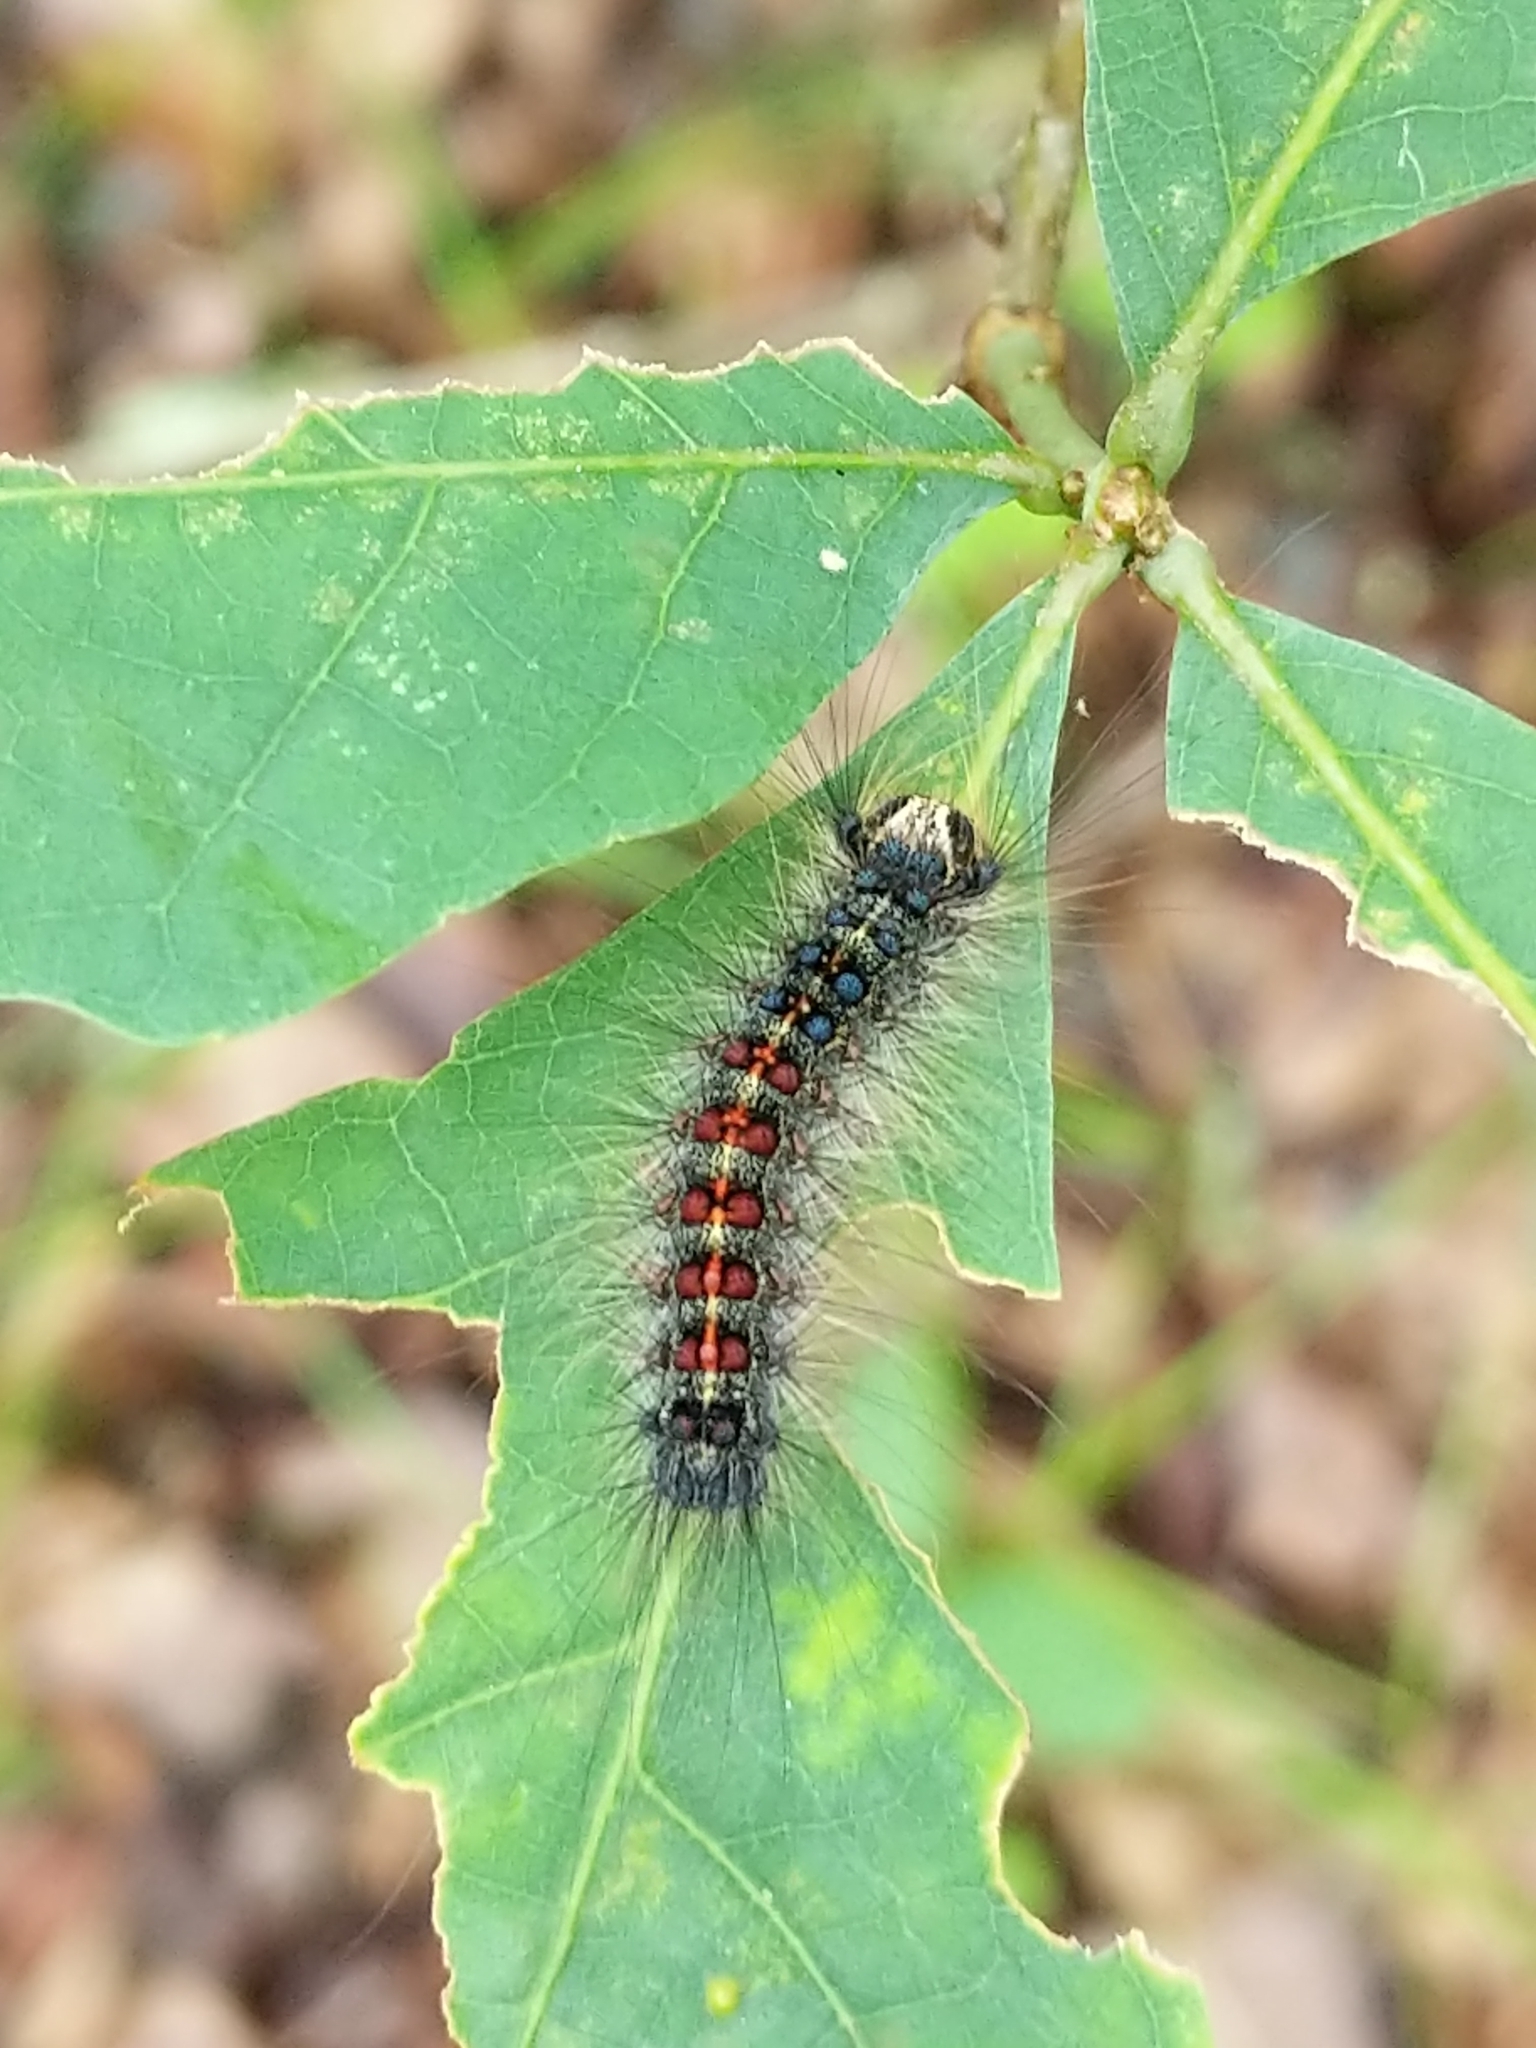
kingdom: Animalia
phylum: Arthropoda
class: Insecta
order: Lepidoptera
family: Erebidae
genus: Lymantria
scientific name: Lymantria dispar
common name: Gypsy moth
